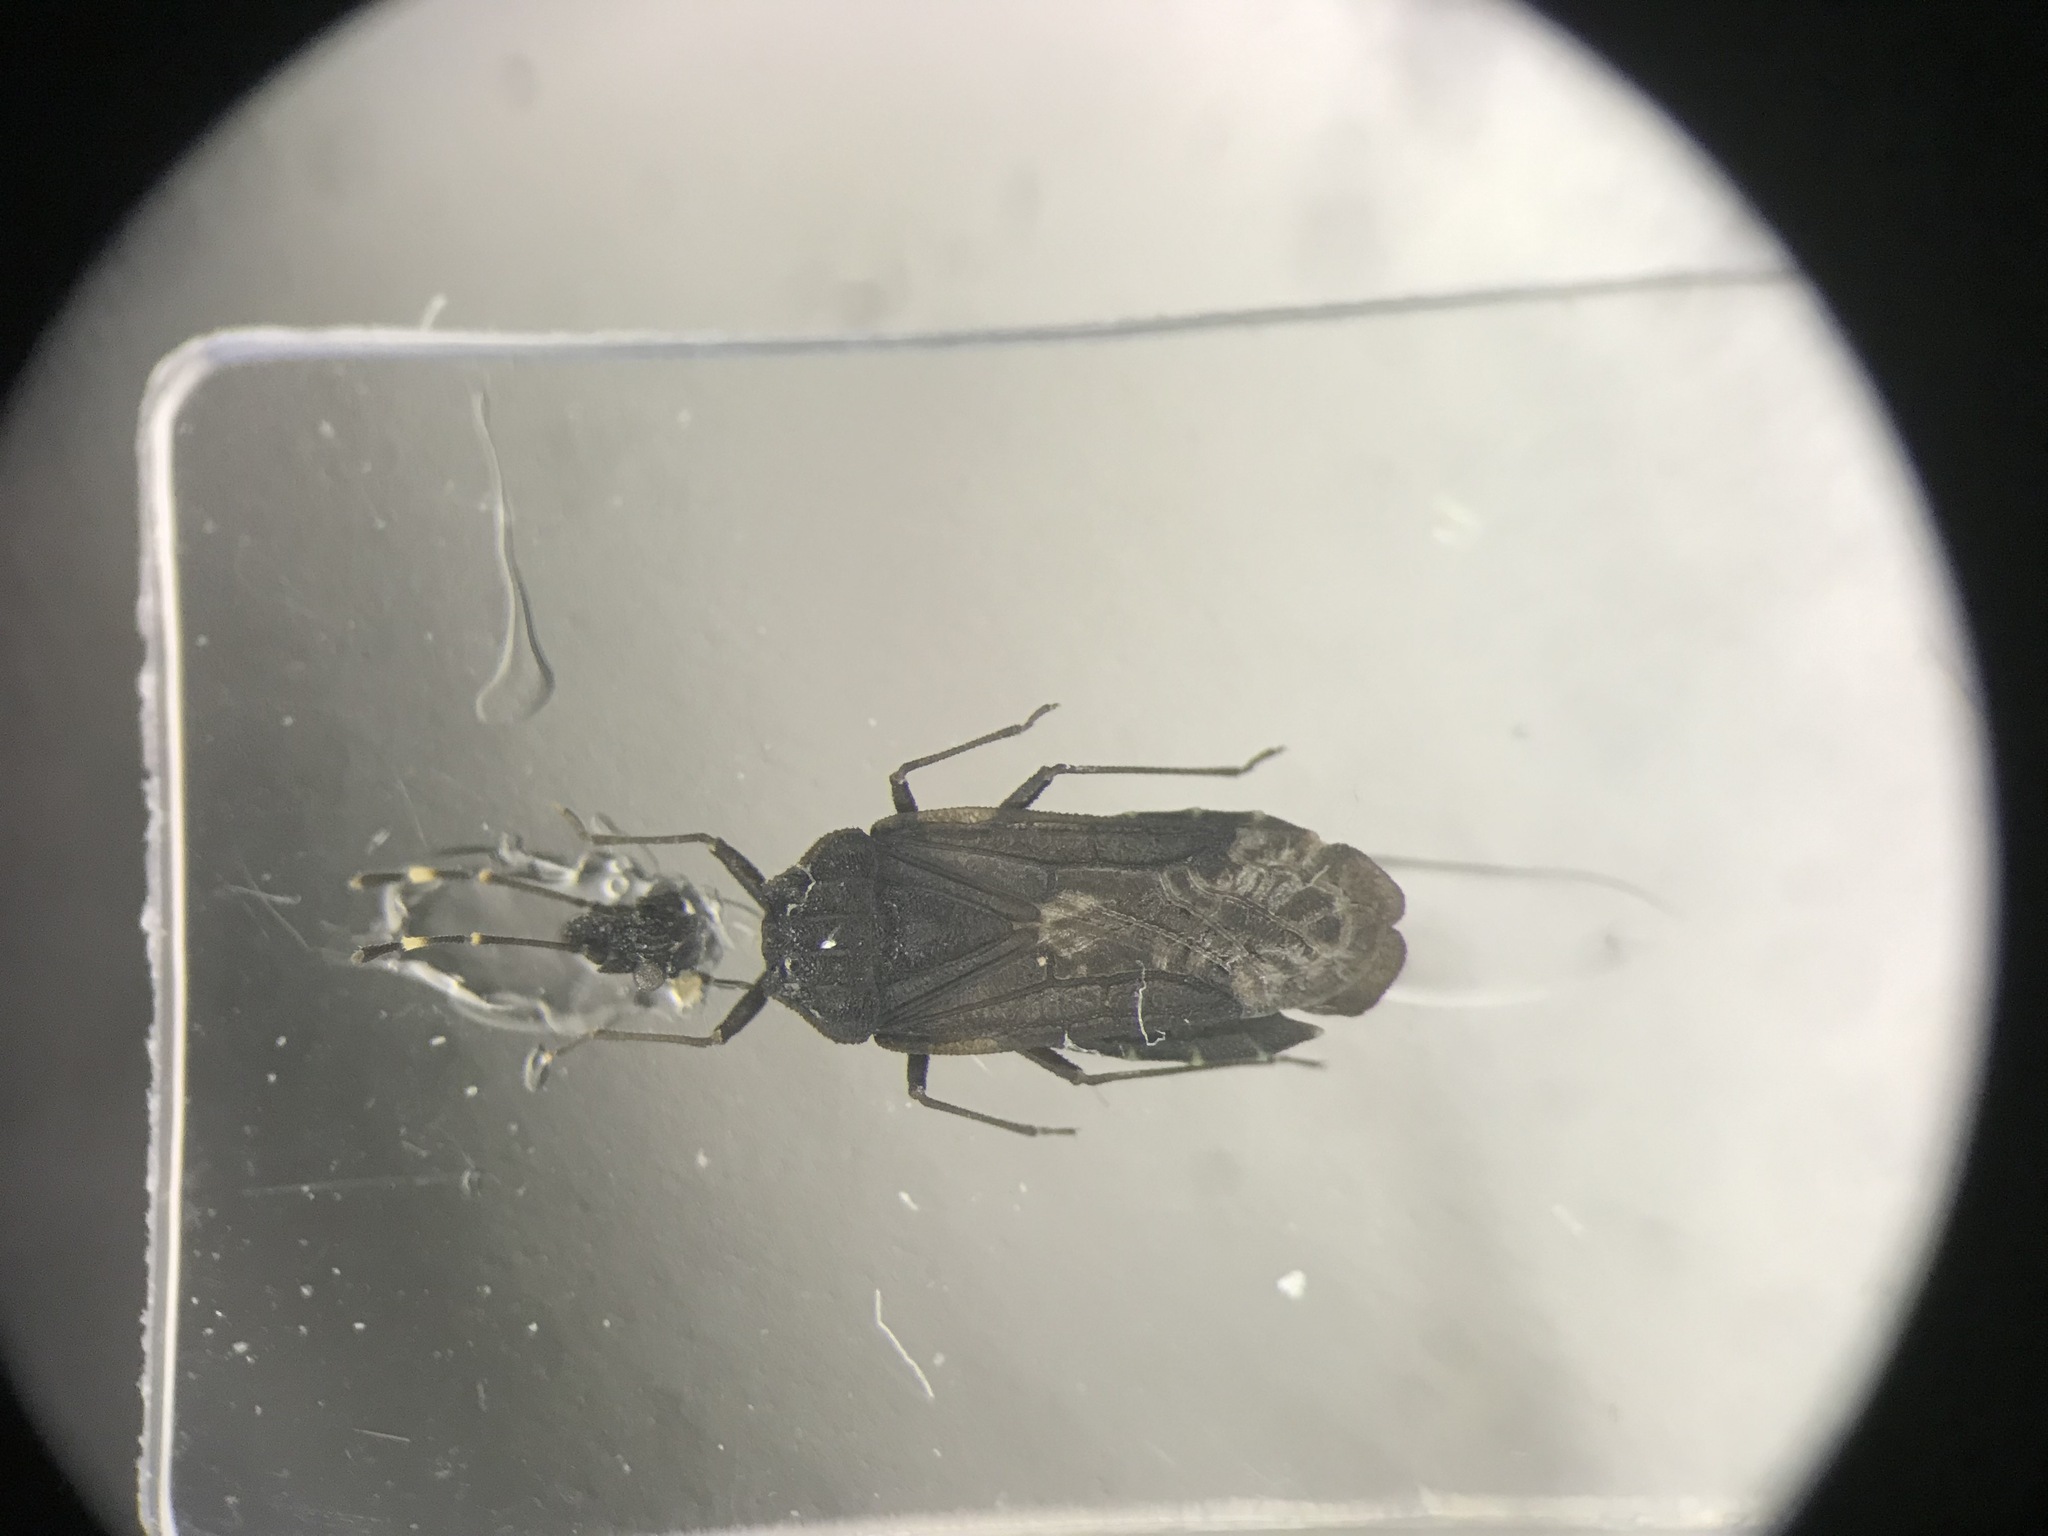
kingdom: Animalia
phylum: Arthropoda
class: Insecta
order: Hemiptera
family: Aradidae
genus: Aradus
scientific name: Aradus abbas
